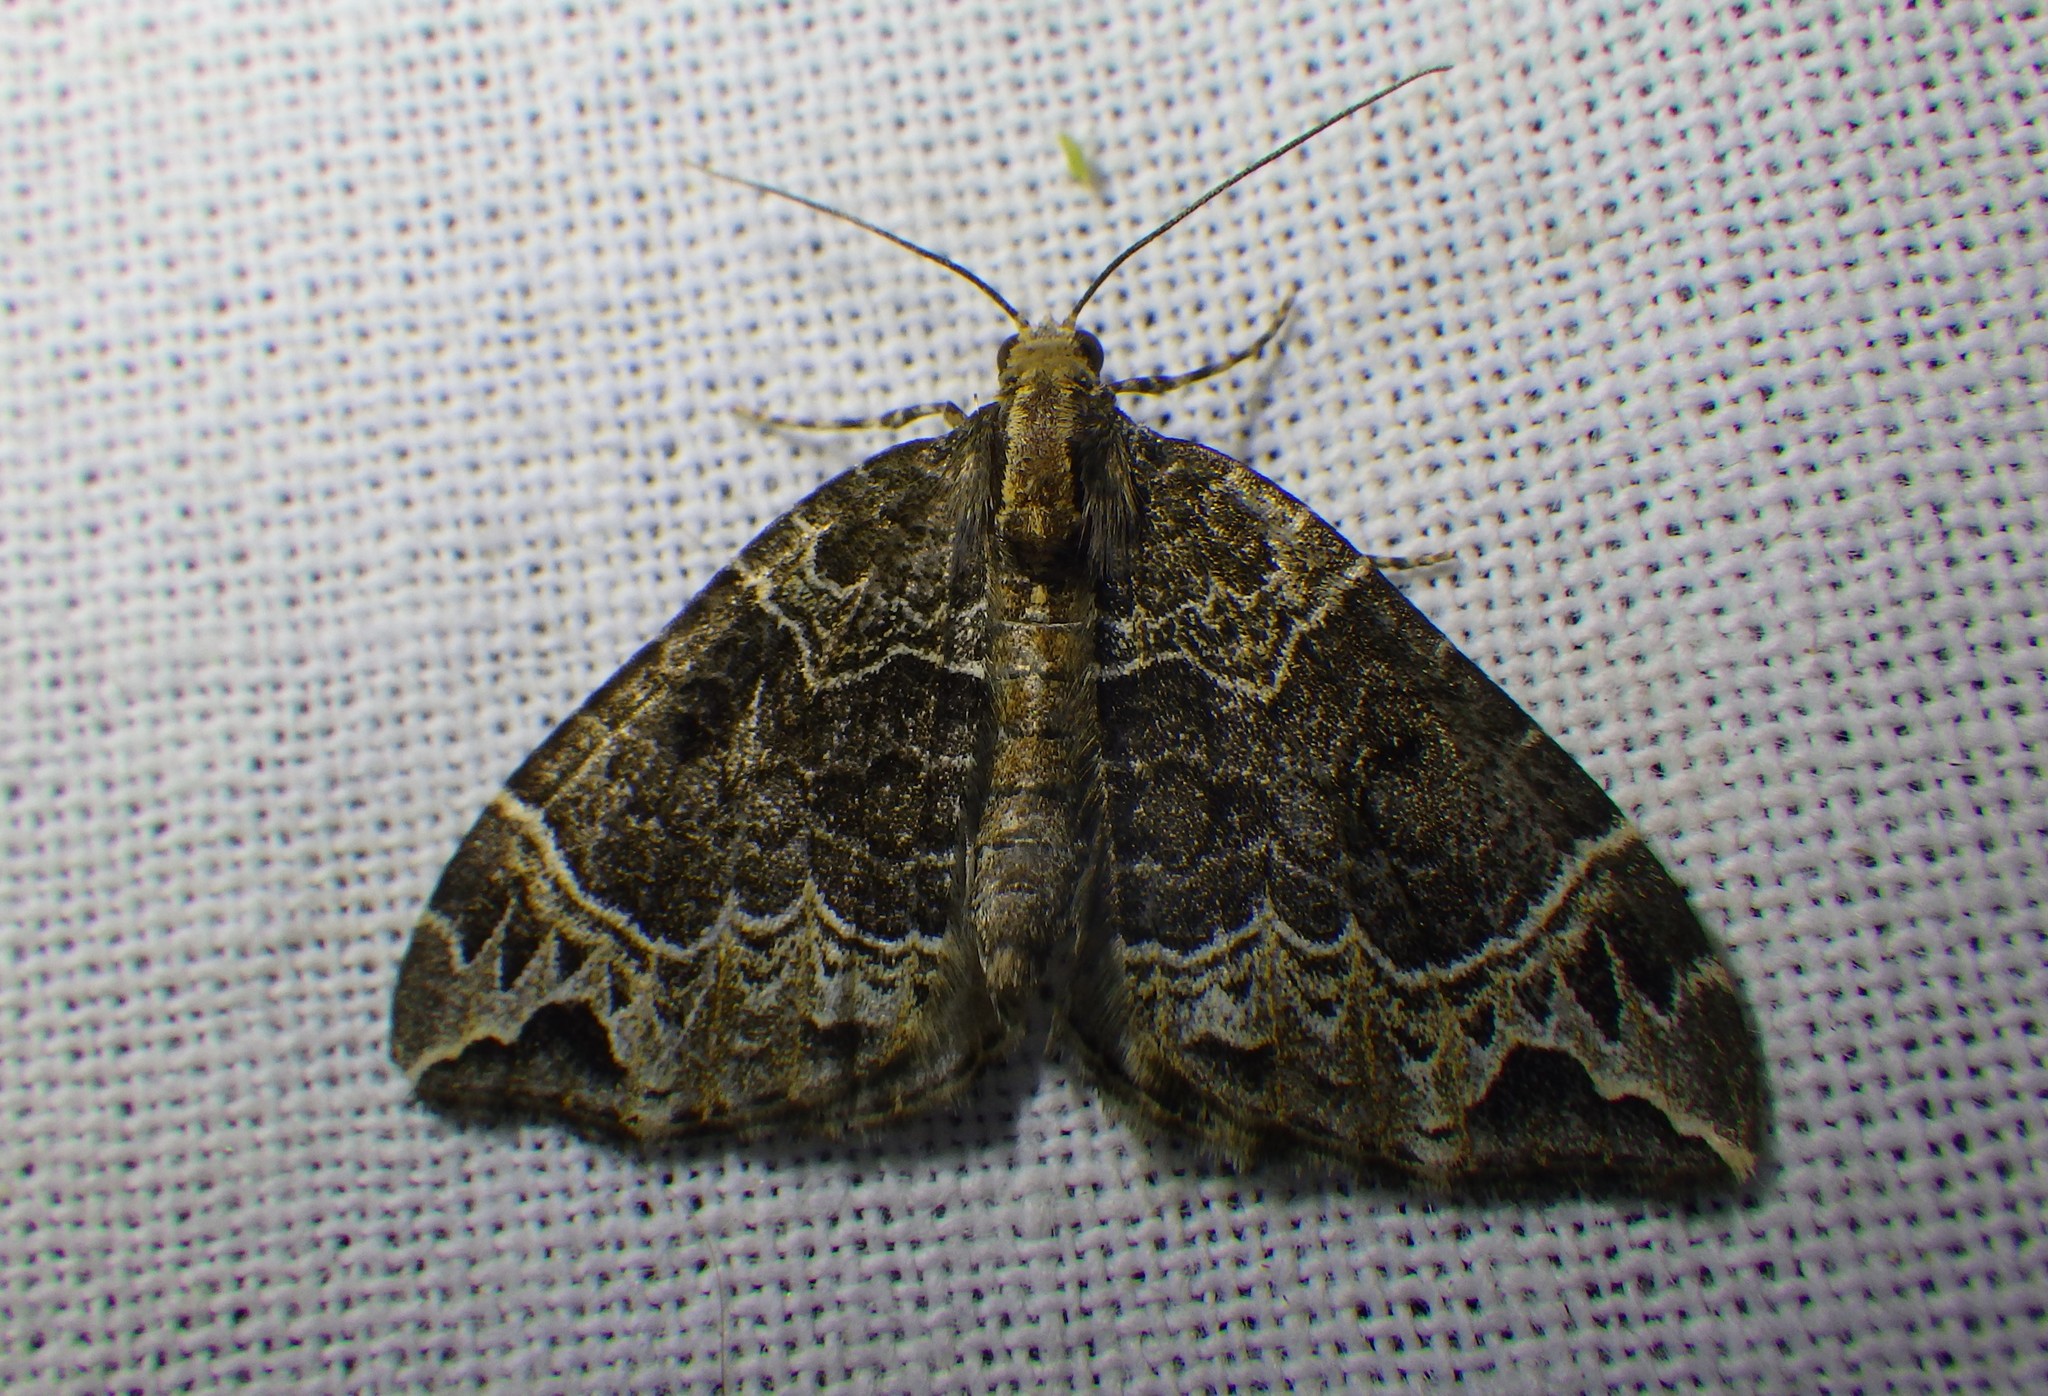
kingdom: Animalia
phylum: Arthropoda
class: Insecta
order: Lepidoptera
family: Geometridae
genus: Ecliptopera
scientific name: Ecliptopera silaceata
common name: Small phoenix
